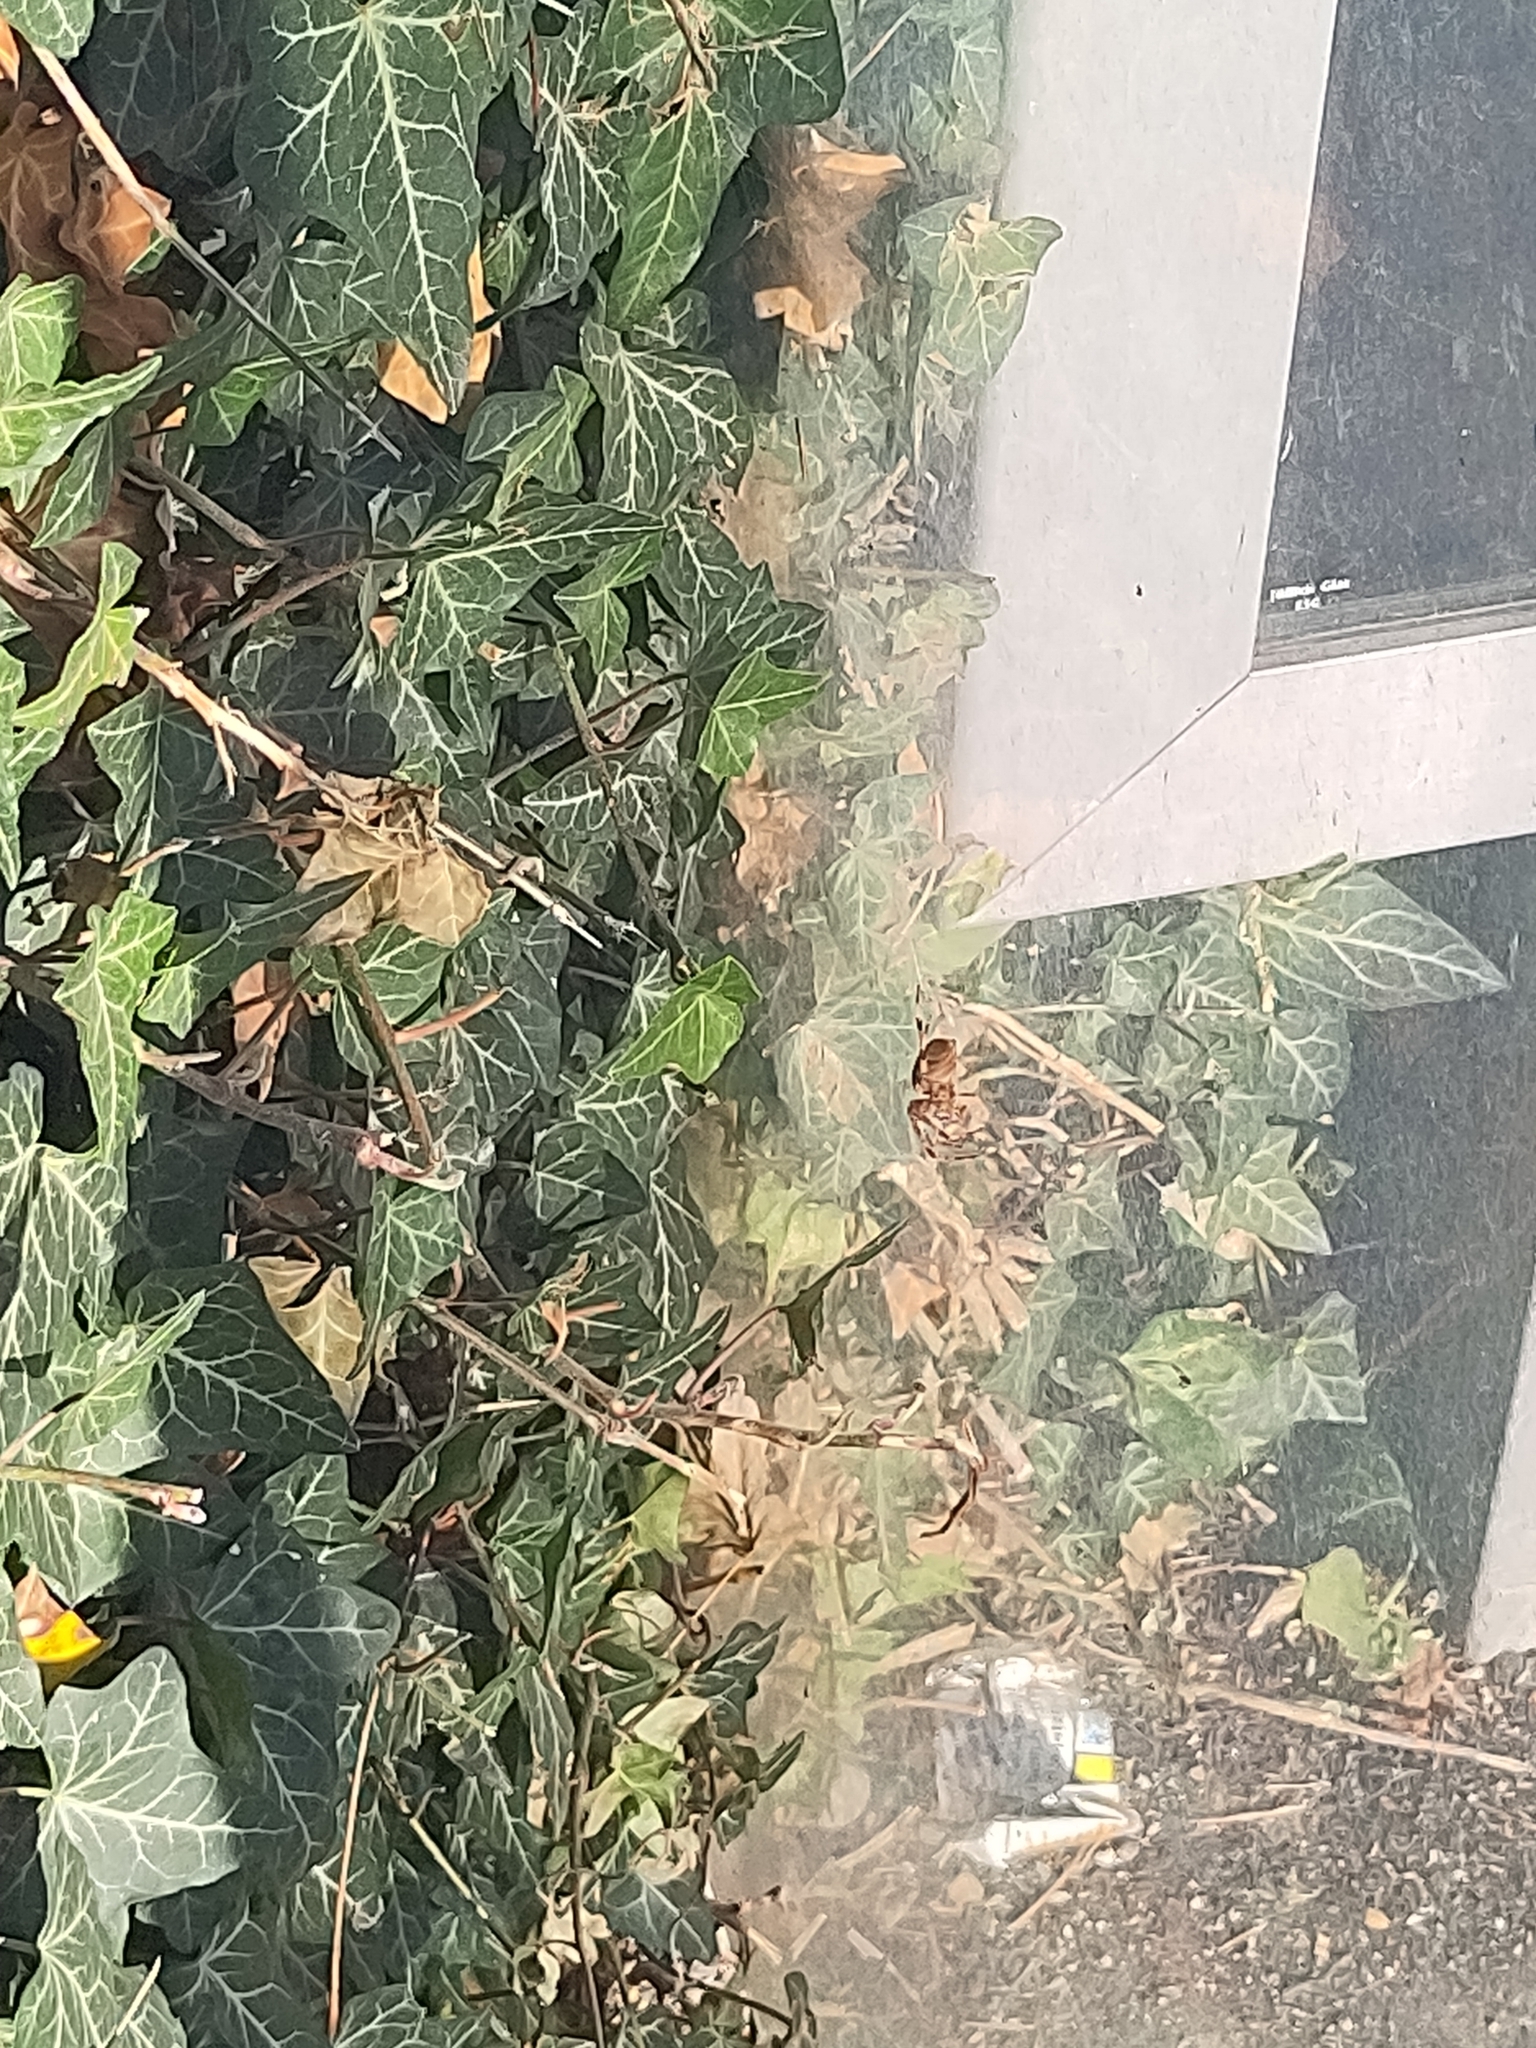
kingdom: Animalia
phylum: Arthropoda
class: Arachnida
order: Araneae
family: Araneidae
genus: Araneus
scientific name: Araneus diadematus
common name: Cross orbweaver
